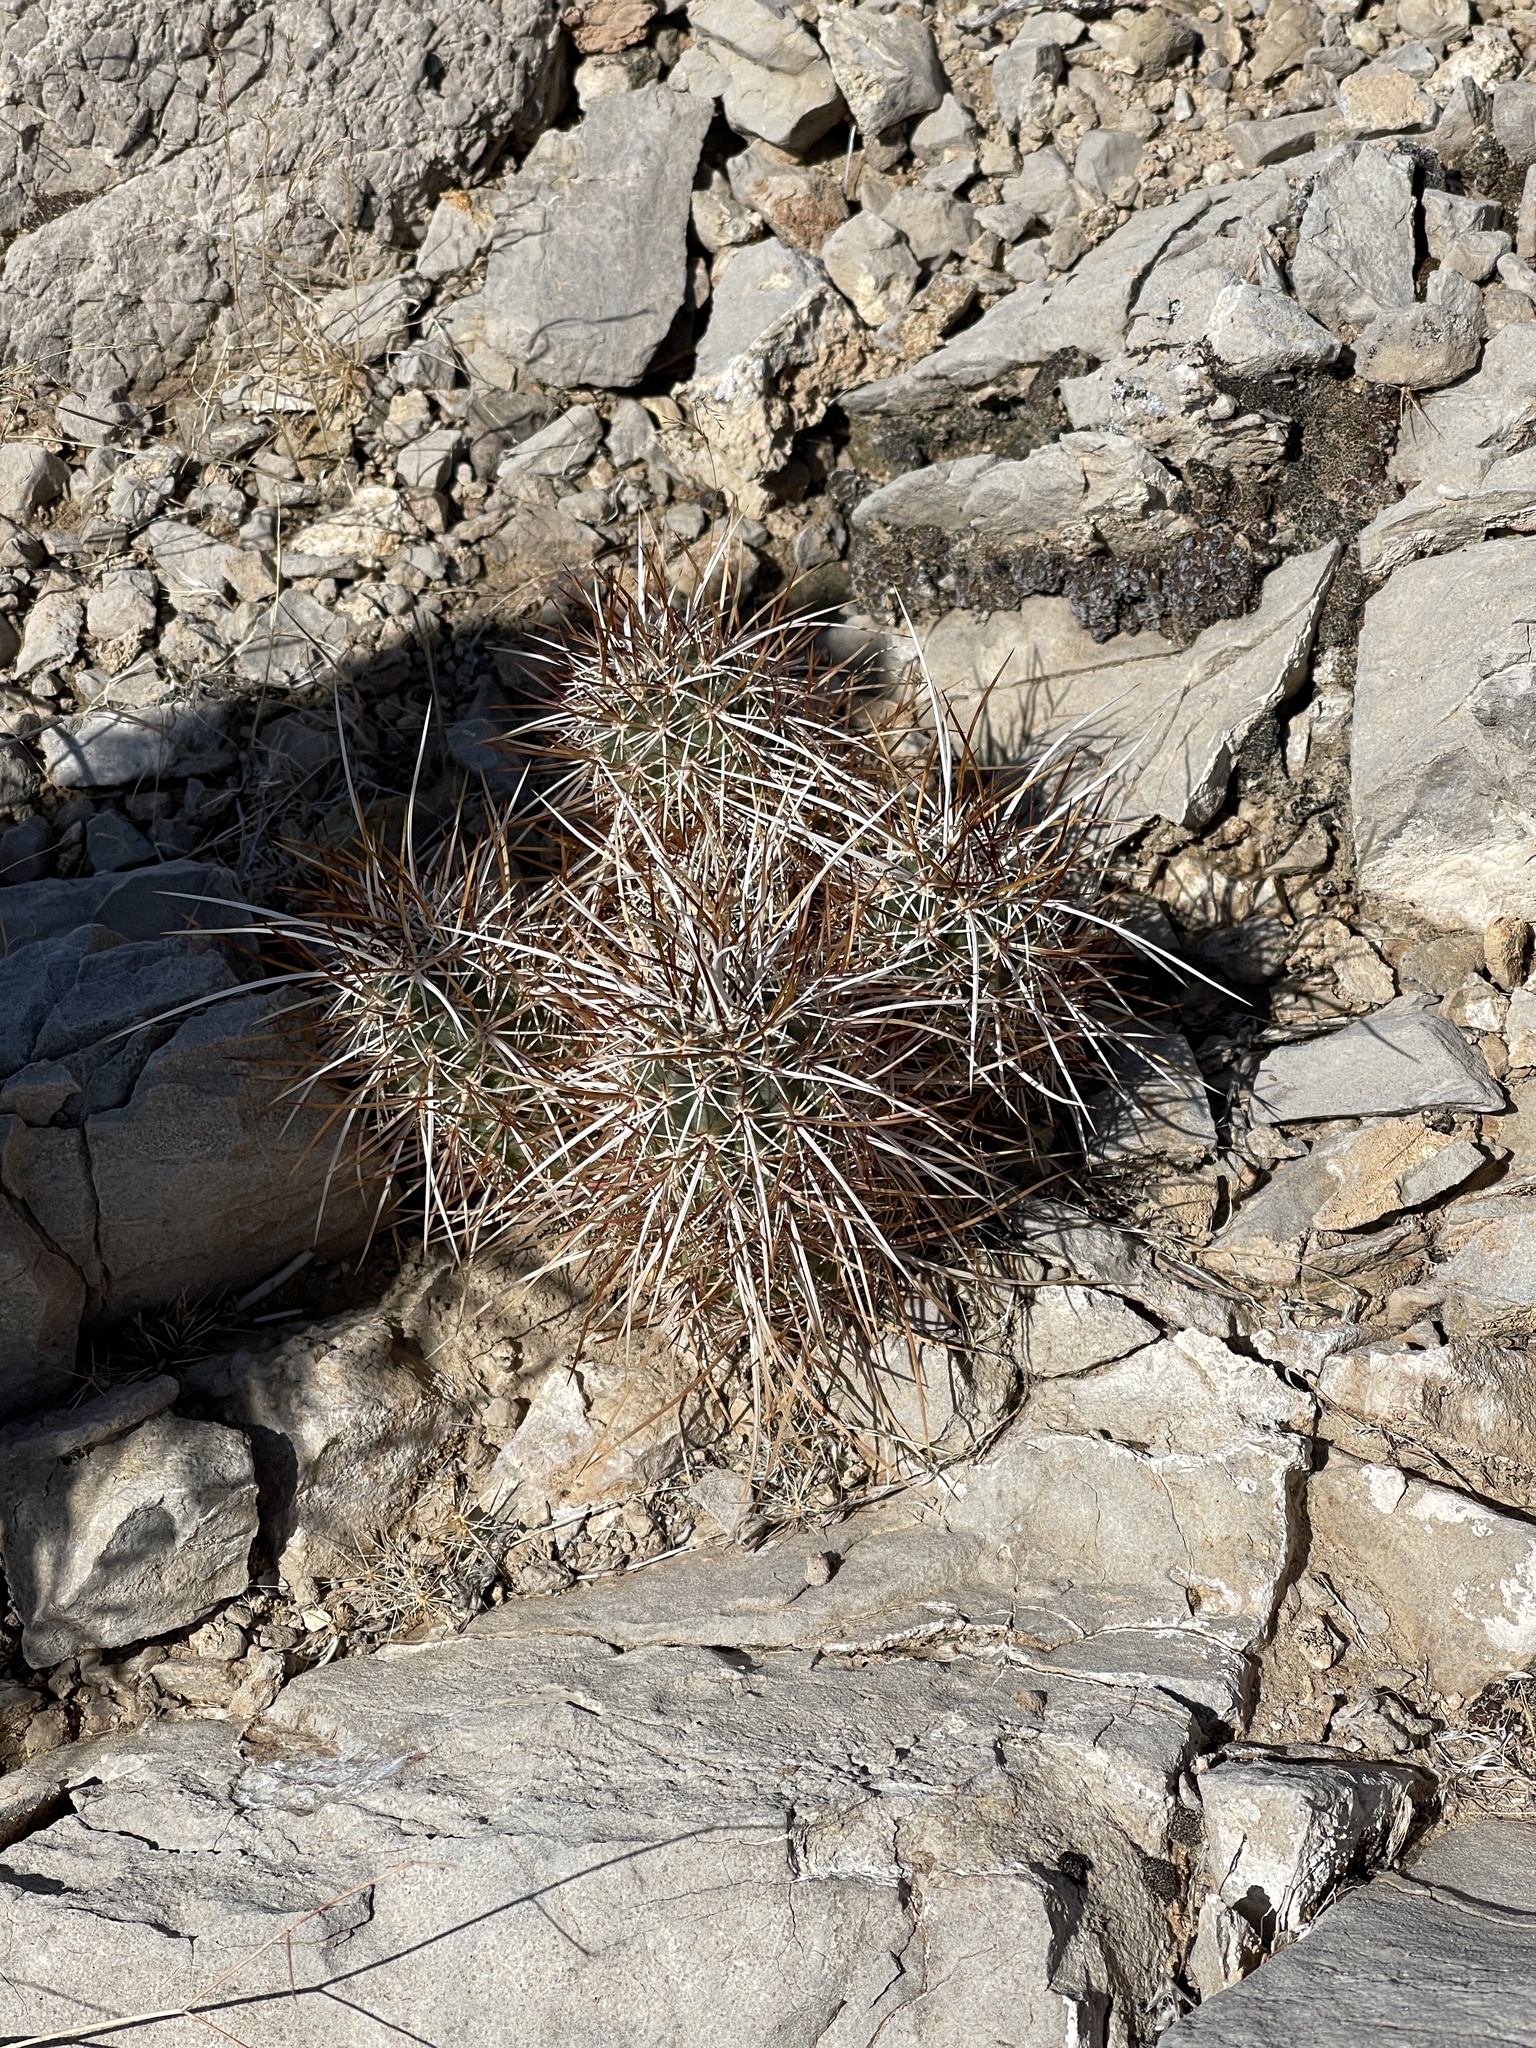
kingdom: Plantae
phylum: Tracheophyta
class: Magnoliopsida
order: Caryophyllales
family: Cactaceae
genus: Echinocereus
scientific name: Echinocereus engelmannii
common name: Engelmann's hedgehog cactus
